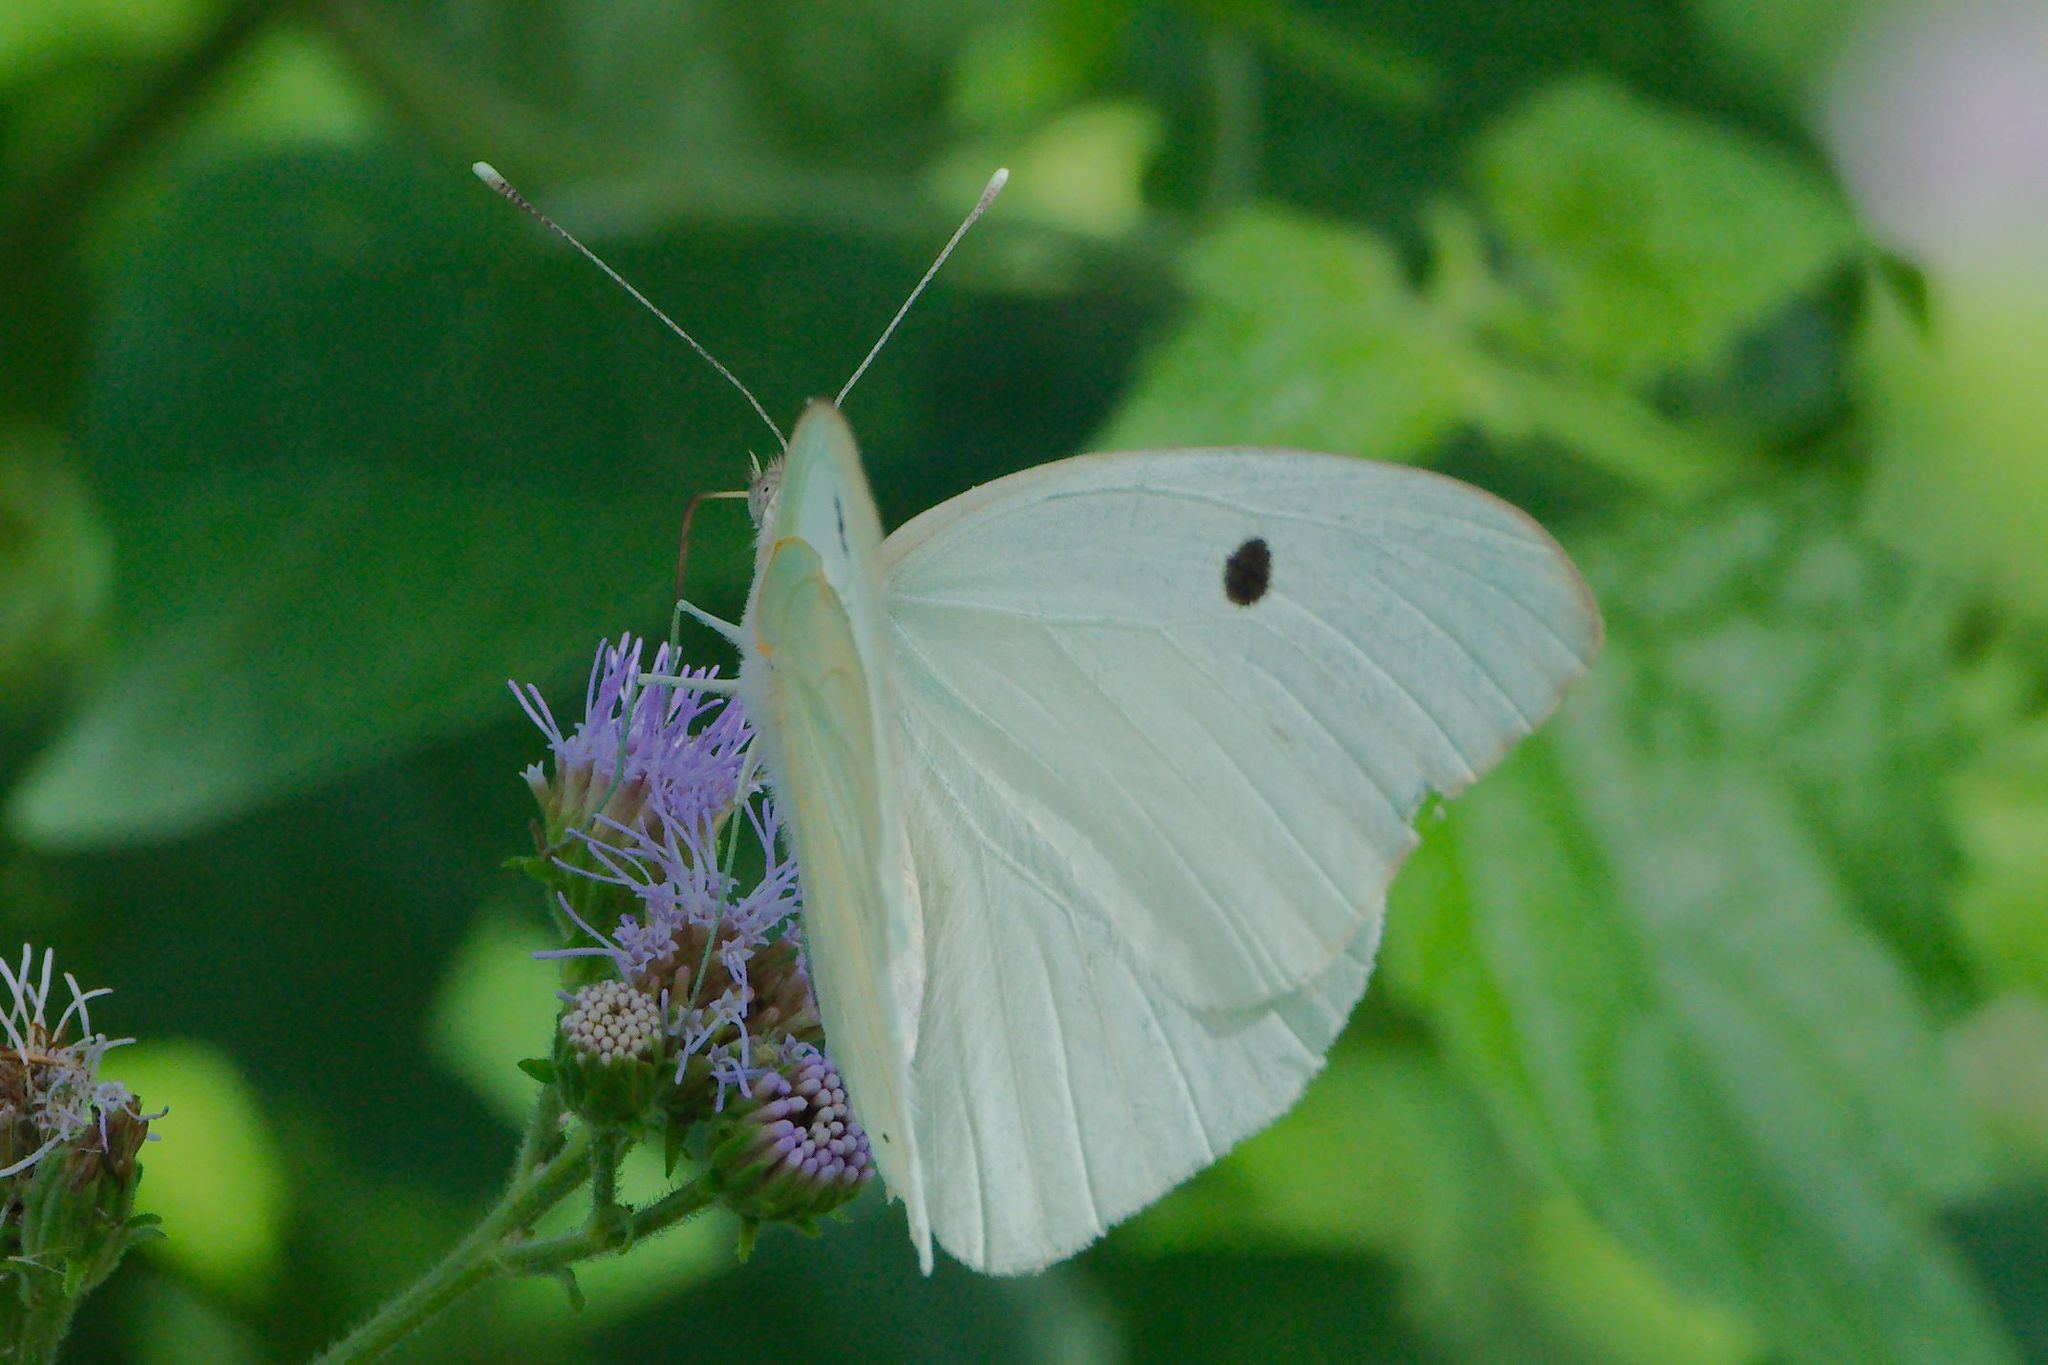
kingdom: Animalia
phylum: Arthropoda
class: Insecta
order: Lepidoptera
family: Pieridae
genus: Ganyra
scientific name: Ganyra josephina
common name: Giant white
